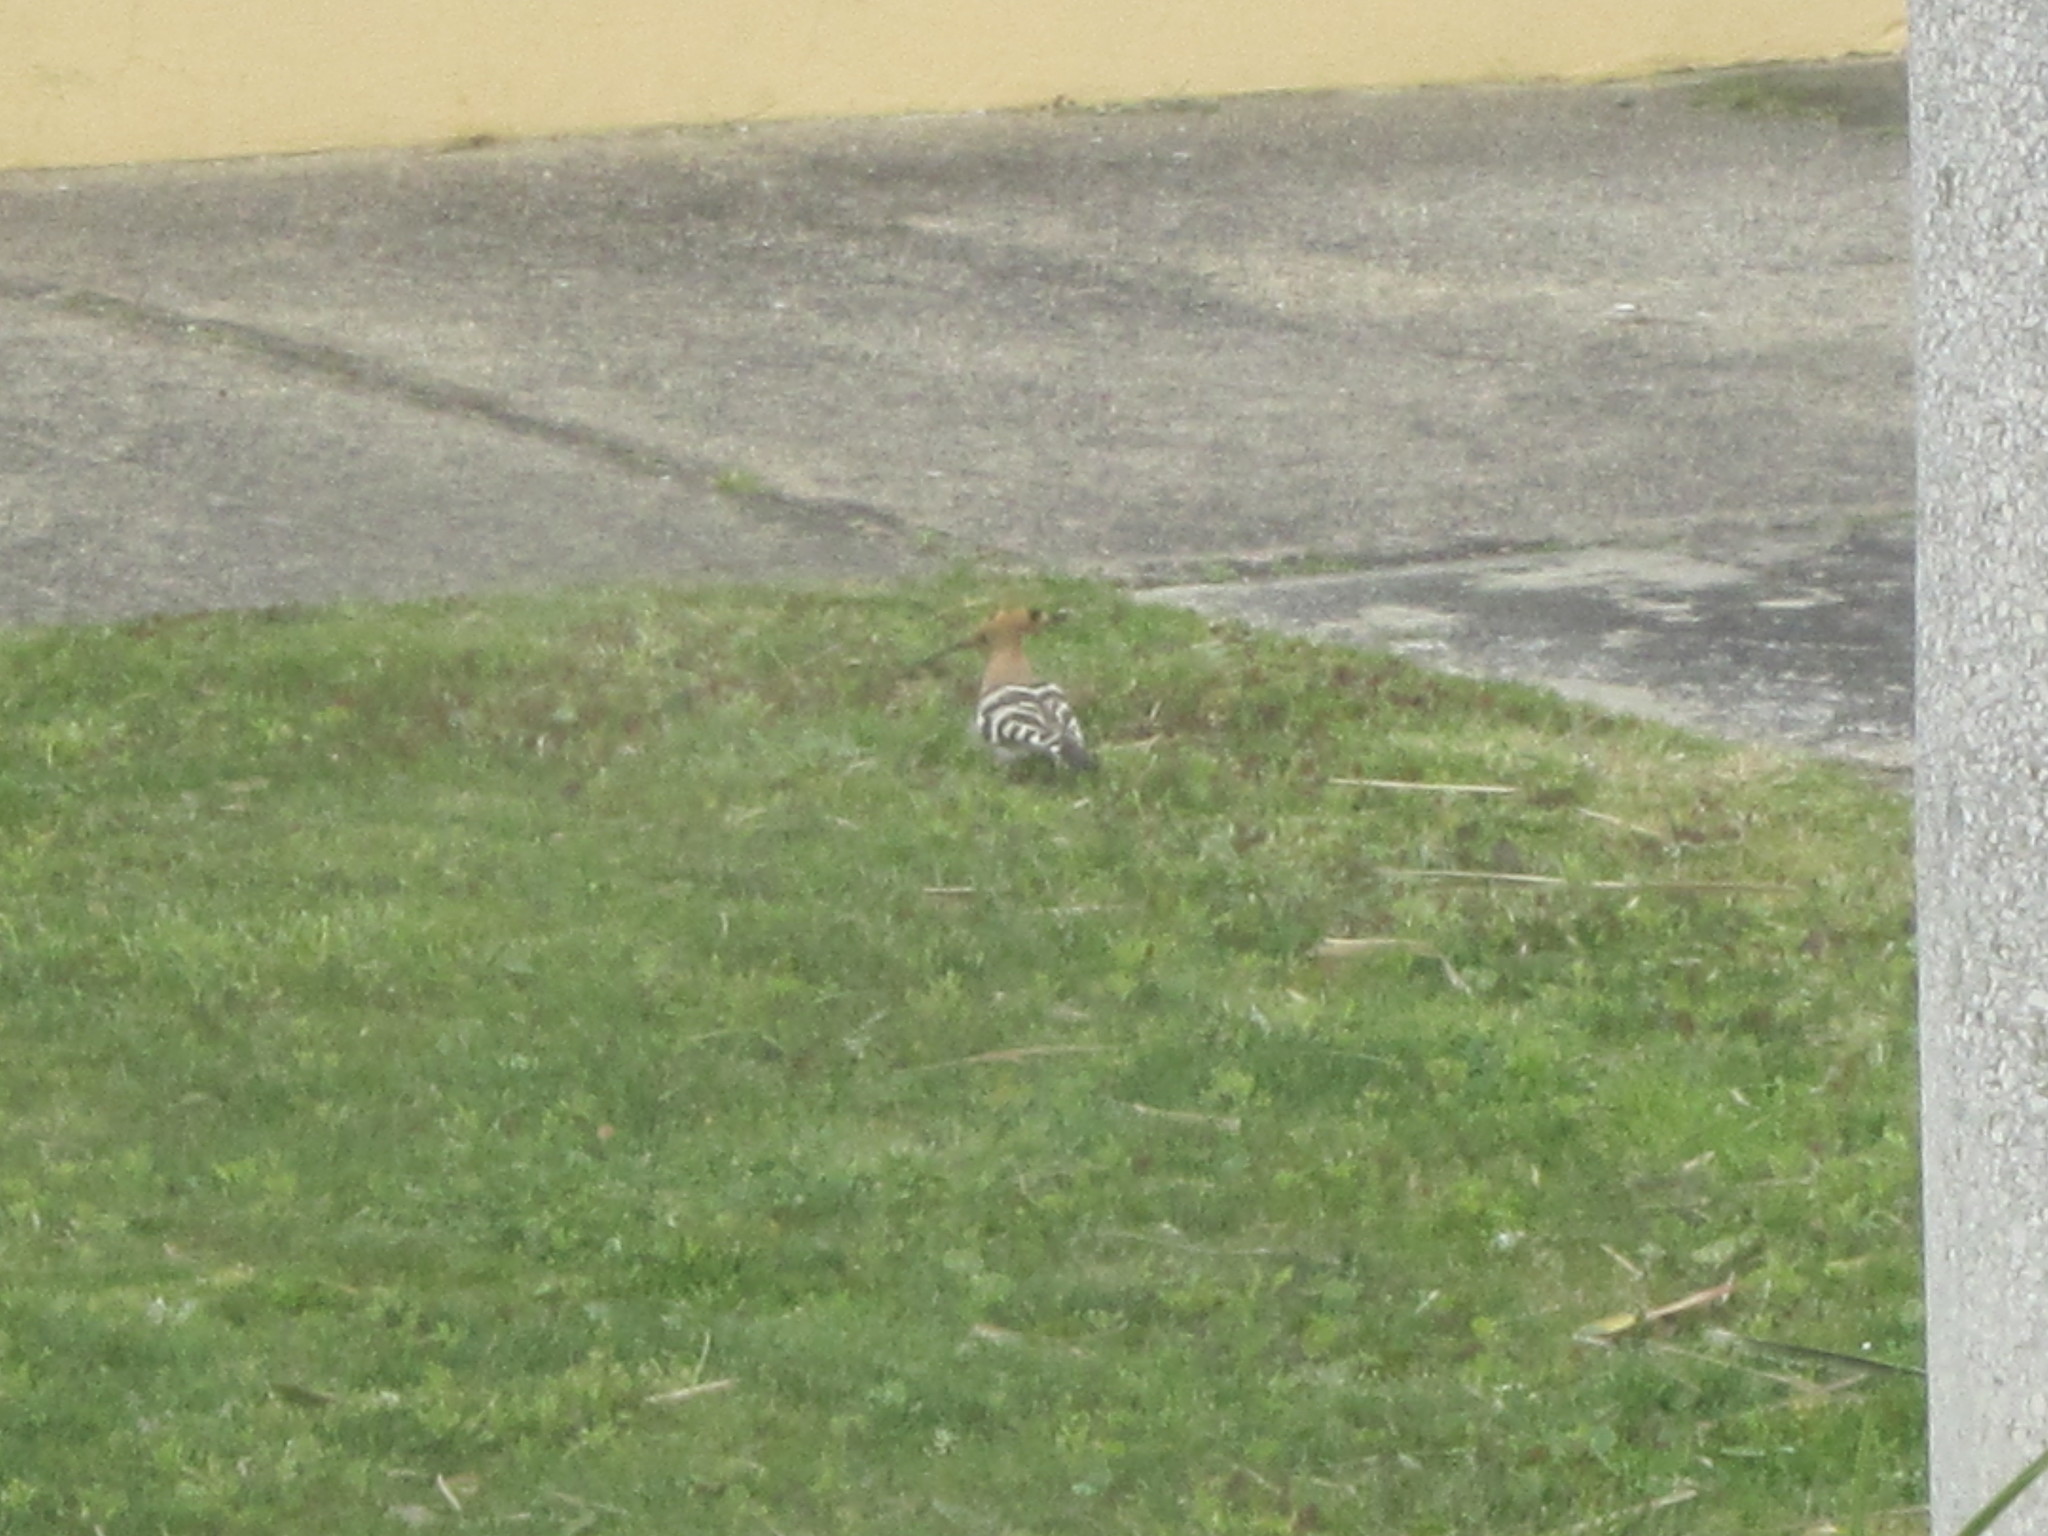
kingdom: Animalia
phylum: Chordata
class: Aves
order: Bucerotiformes
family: Upupidae
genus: Upupa
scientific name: Upupa epops
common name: Eurasian hoopoe
